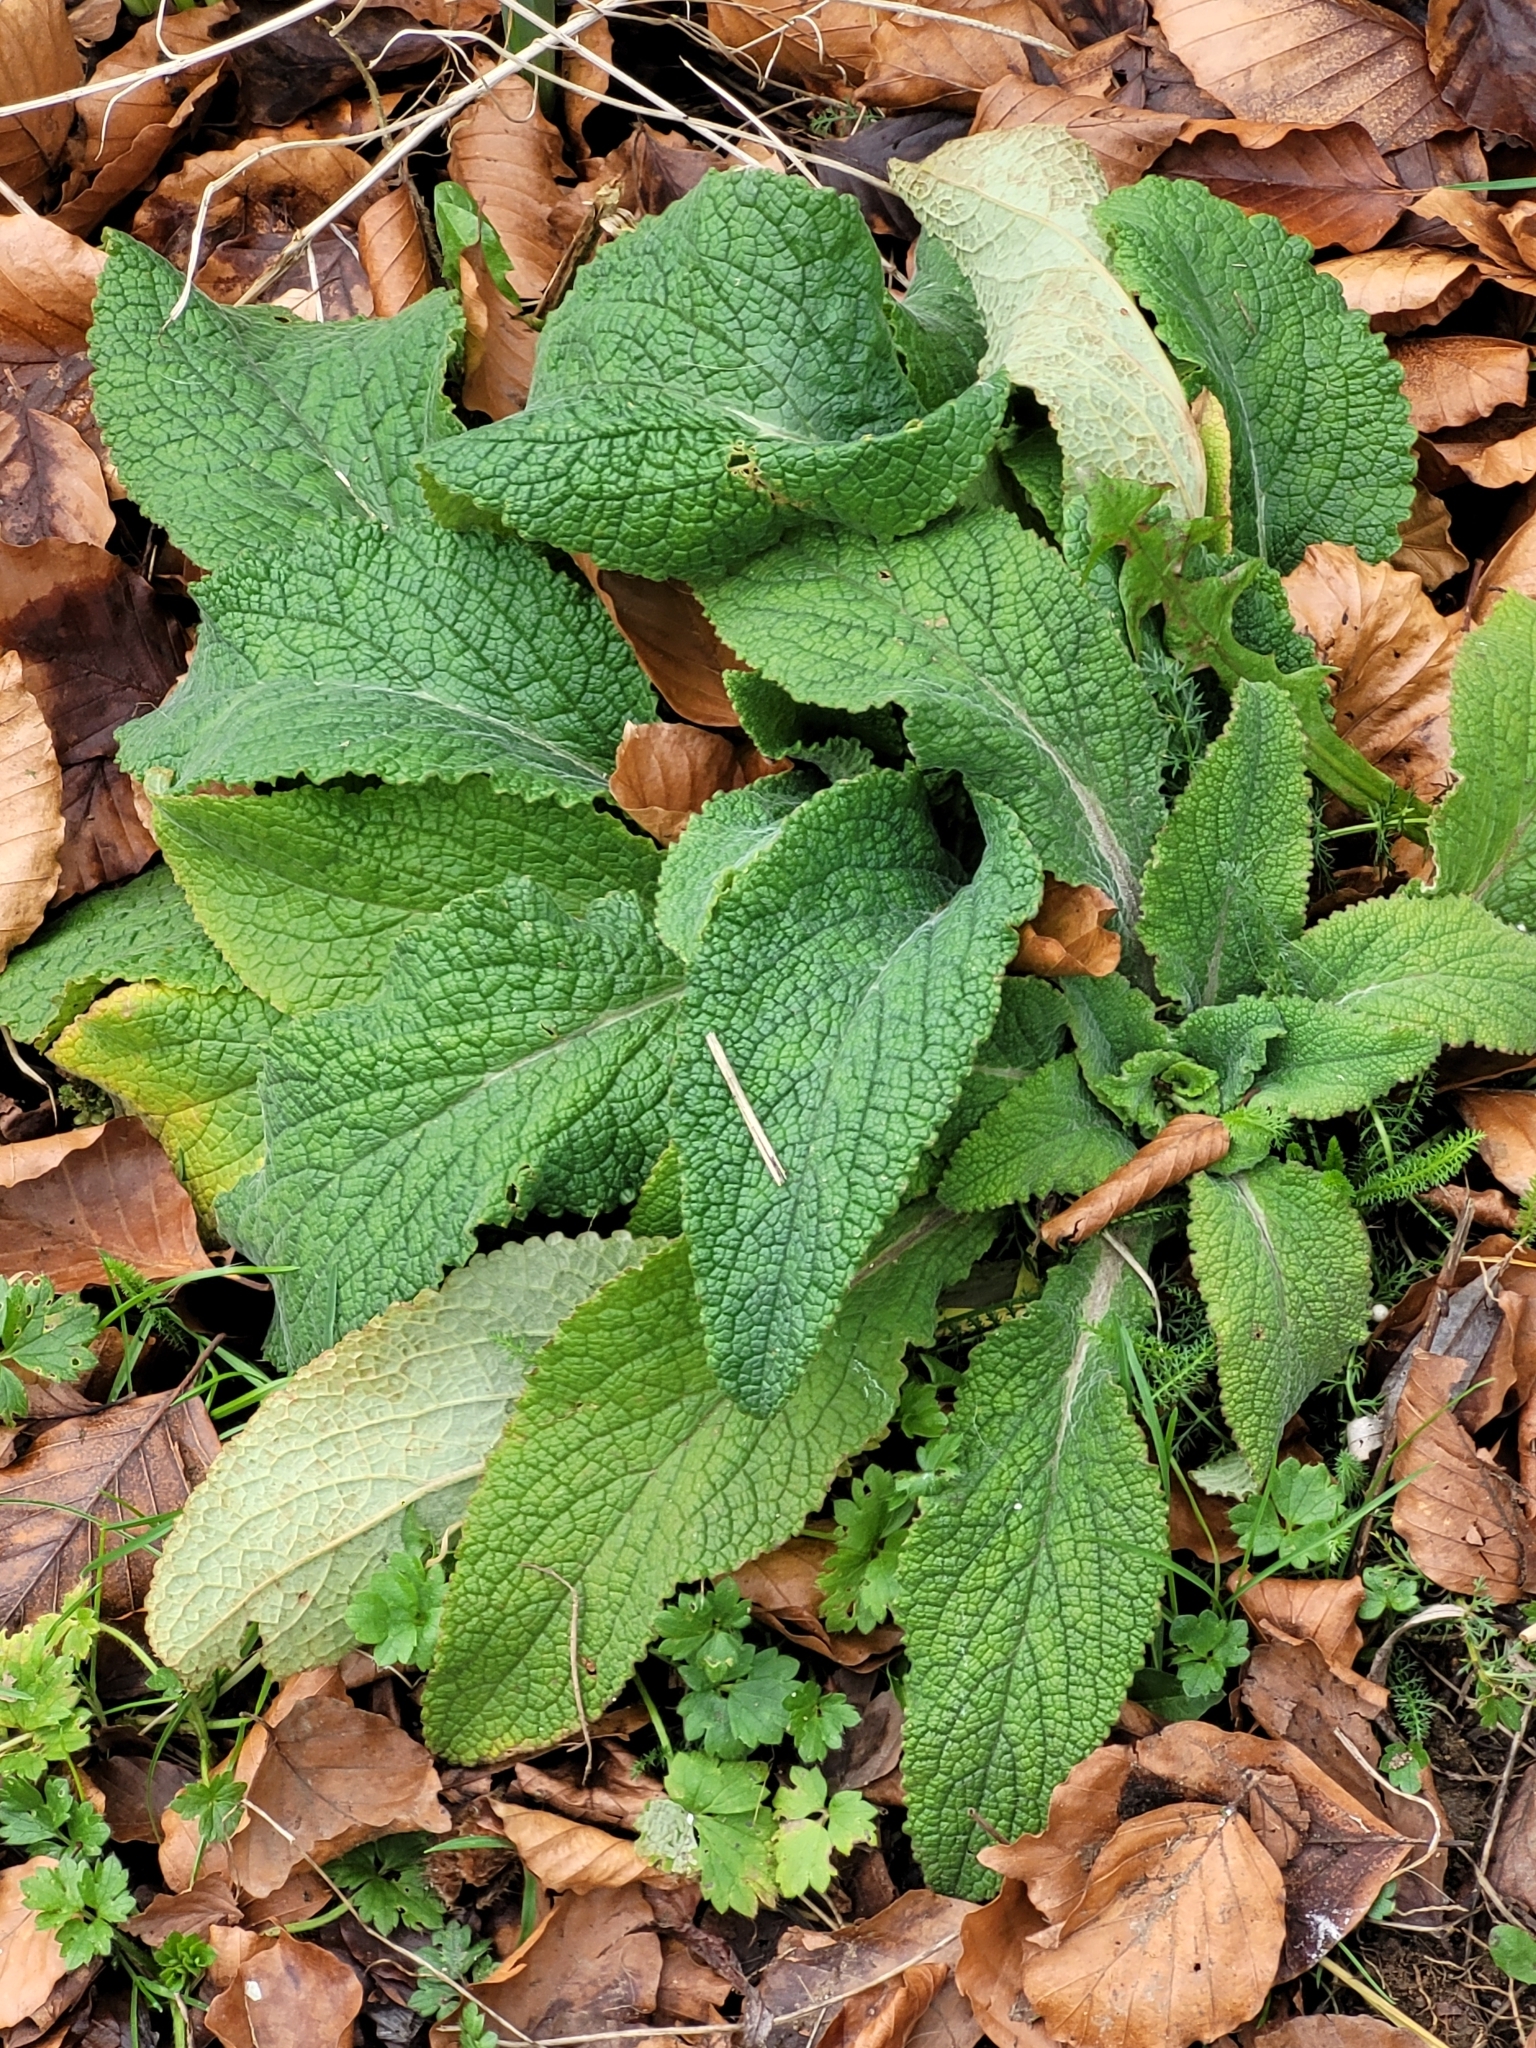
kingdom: Plantae
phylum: Tracheophyta
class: Magnoliopsida
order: Lamiales
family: Plantaginaceae
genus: Digitalis
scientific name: Digitalis purpurea
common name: Foxglove
